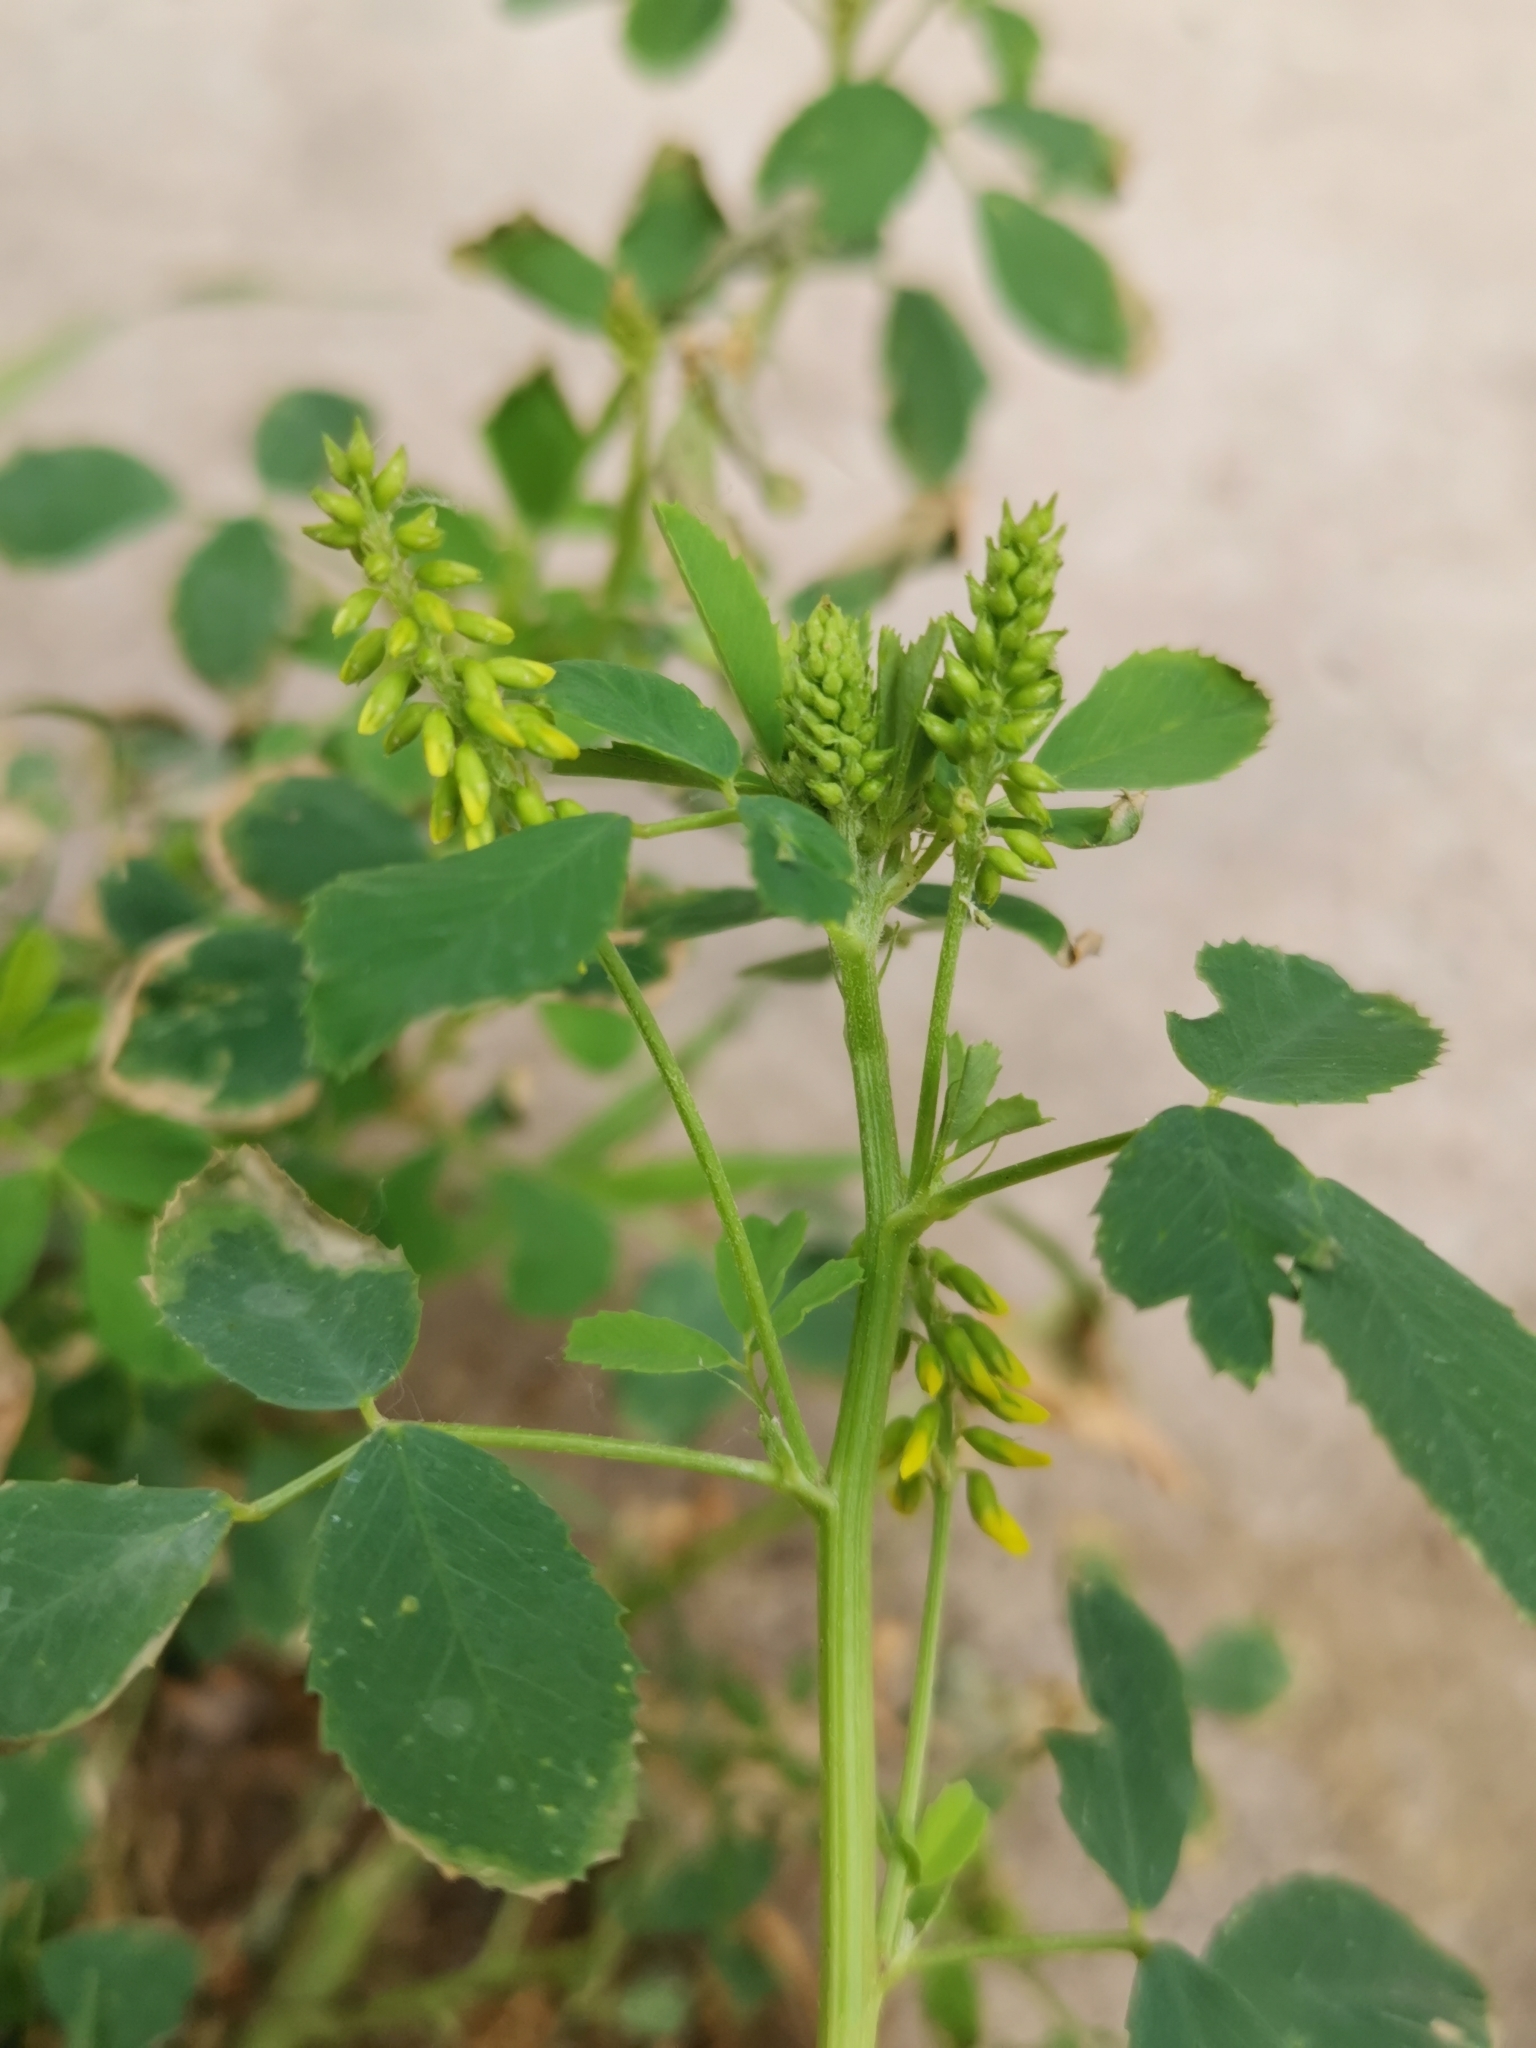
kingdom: Plantae
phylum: Tracheophyta
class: Magnoliopsida
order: Fabales
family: Fabaceae
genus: Melilotus
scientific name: Melilotus officinalis
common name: Sweetclover
